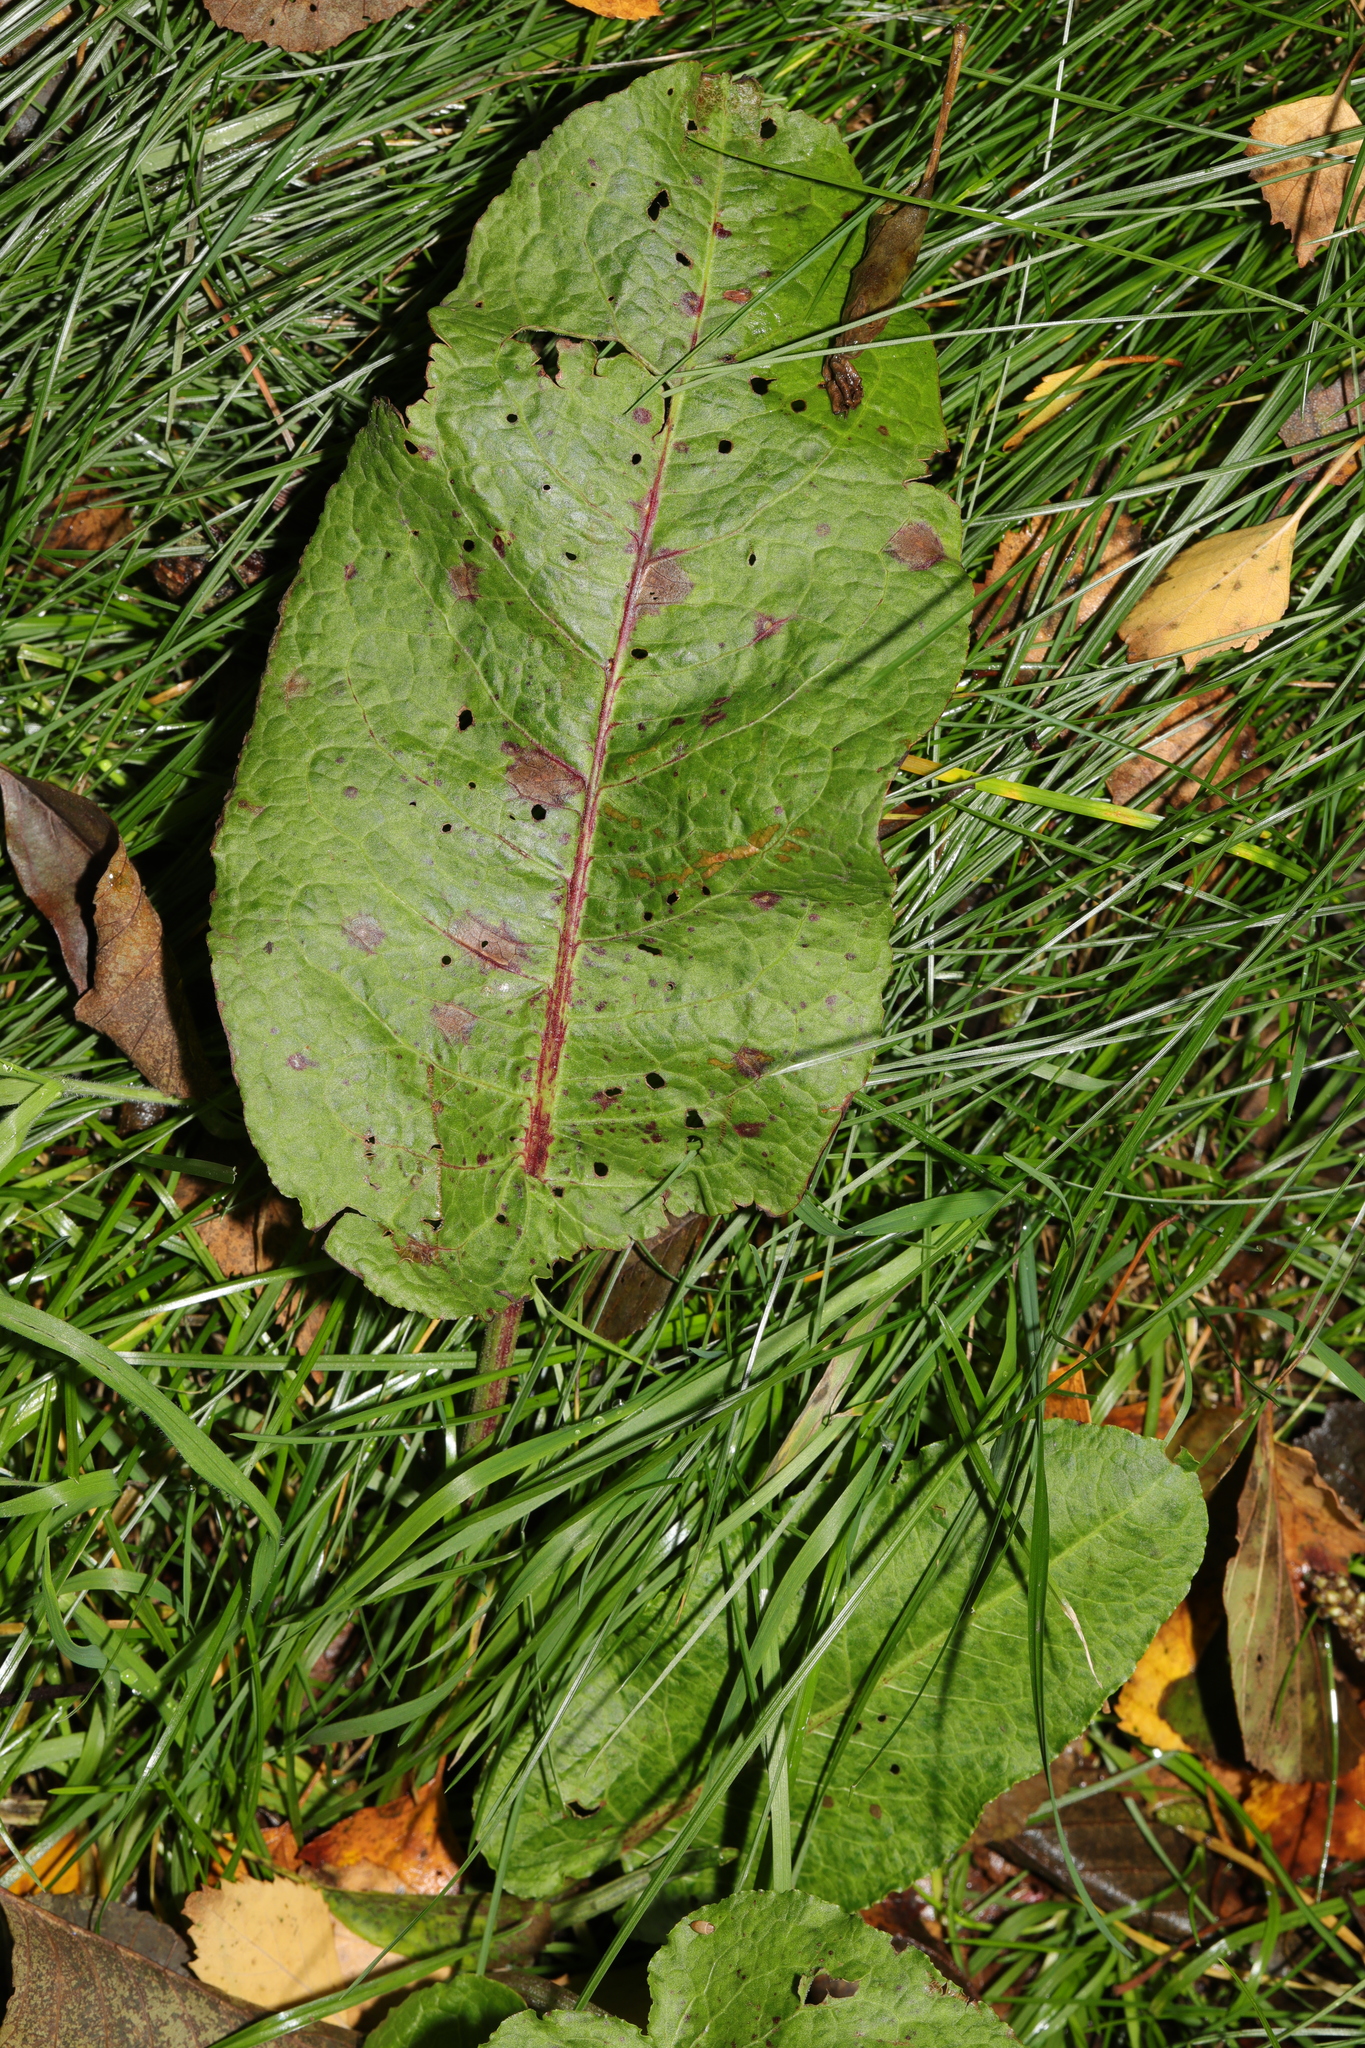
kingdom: Plantae
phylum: Tracheophyta
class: Magnoliopsida
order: Caryophyllales
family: Polygonaceae
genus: Rumex
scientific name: Rumex obtusifolius
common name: Bitter dock
